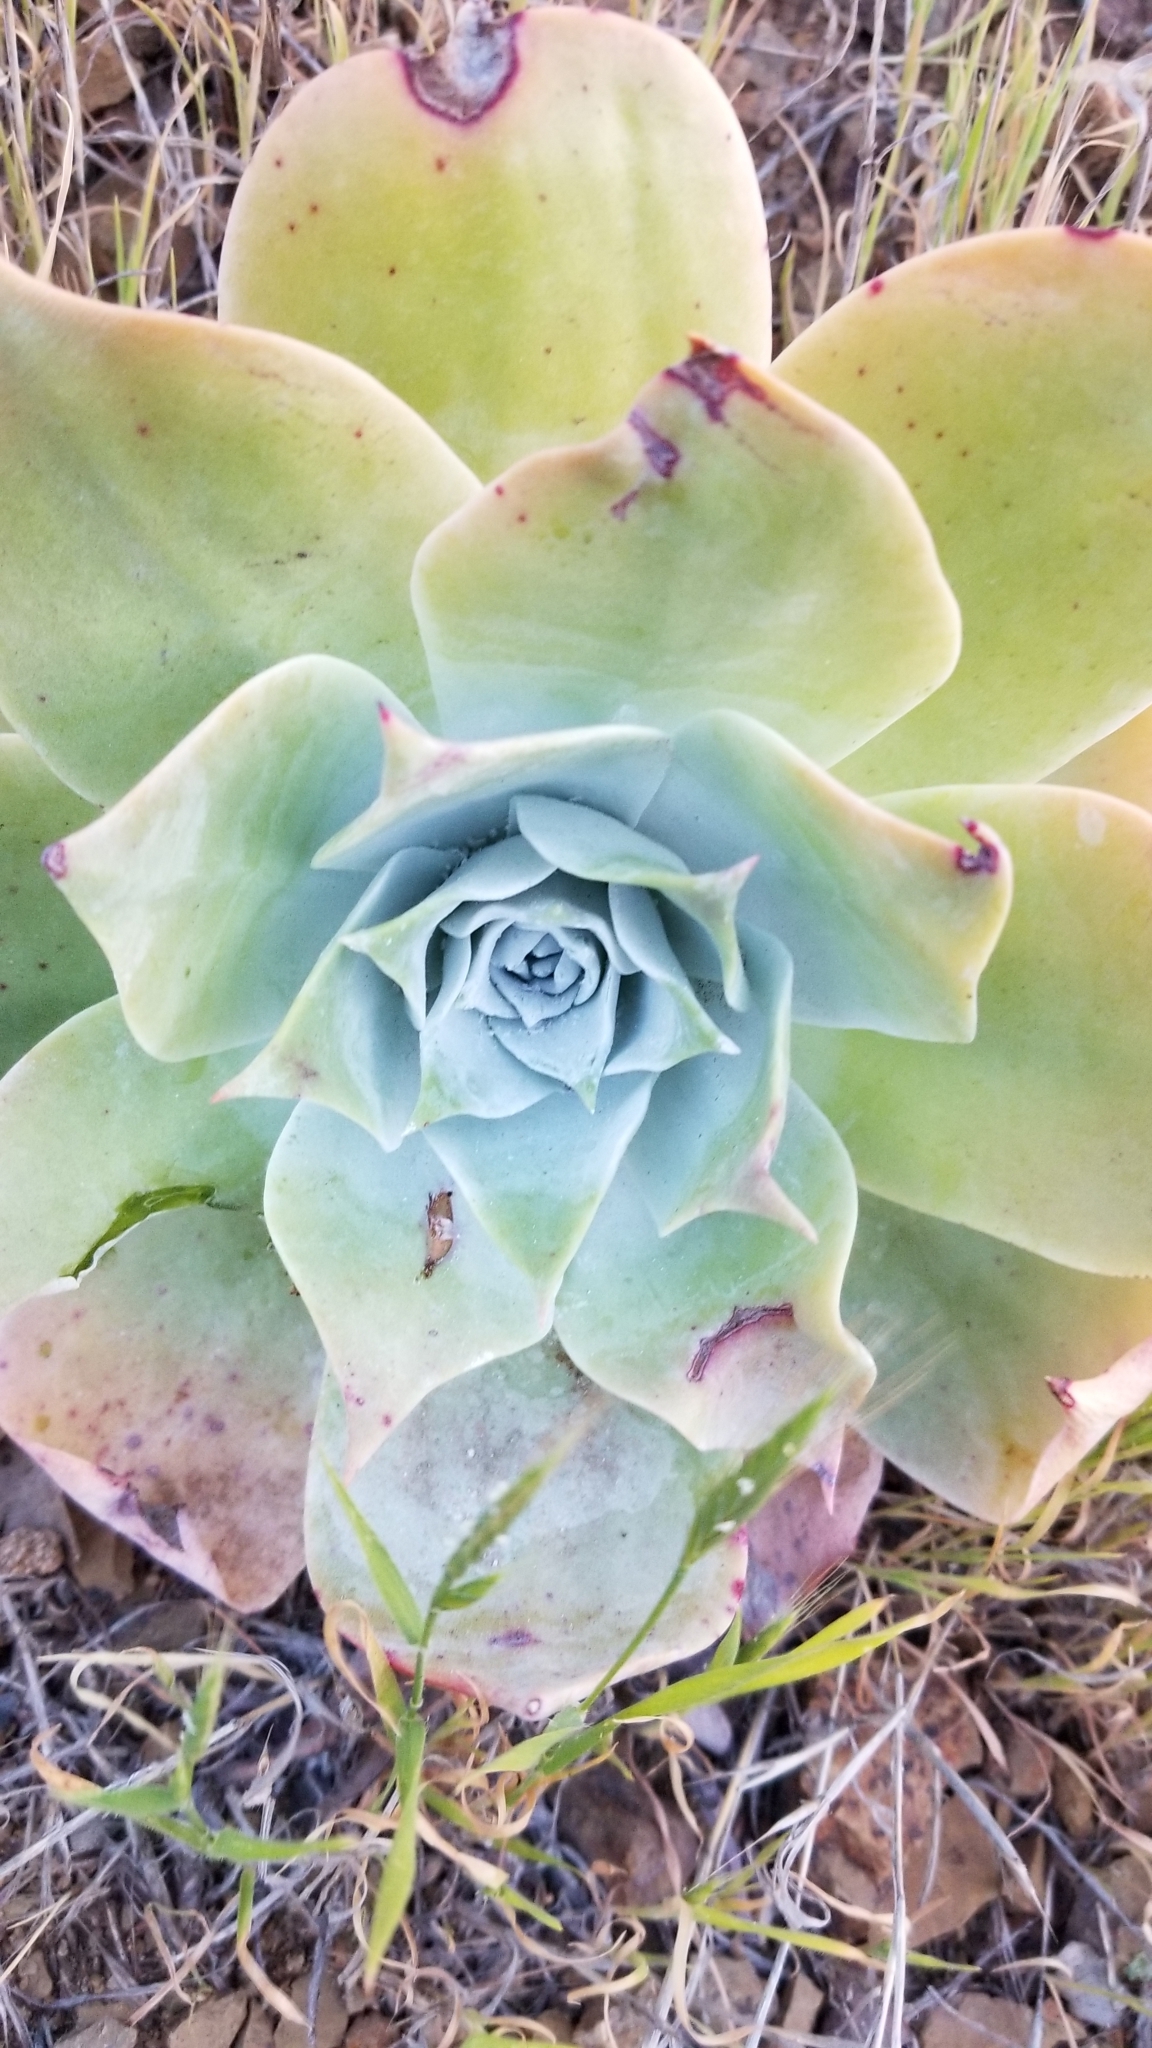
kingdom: Plantae
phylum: Tracheophyta
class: Magnoliopsida
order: Saxifragales
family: Crassulaceae
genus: Dudleya
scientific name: Dudleya pulverulenta
